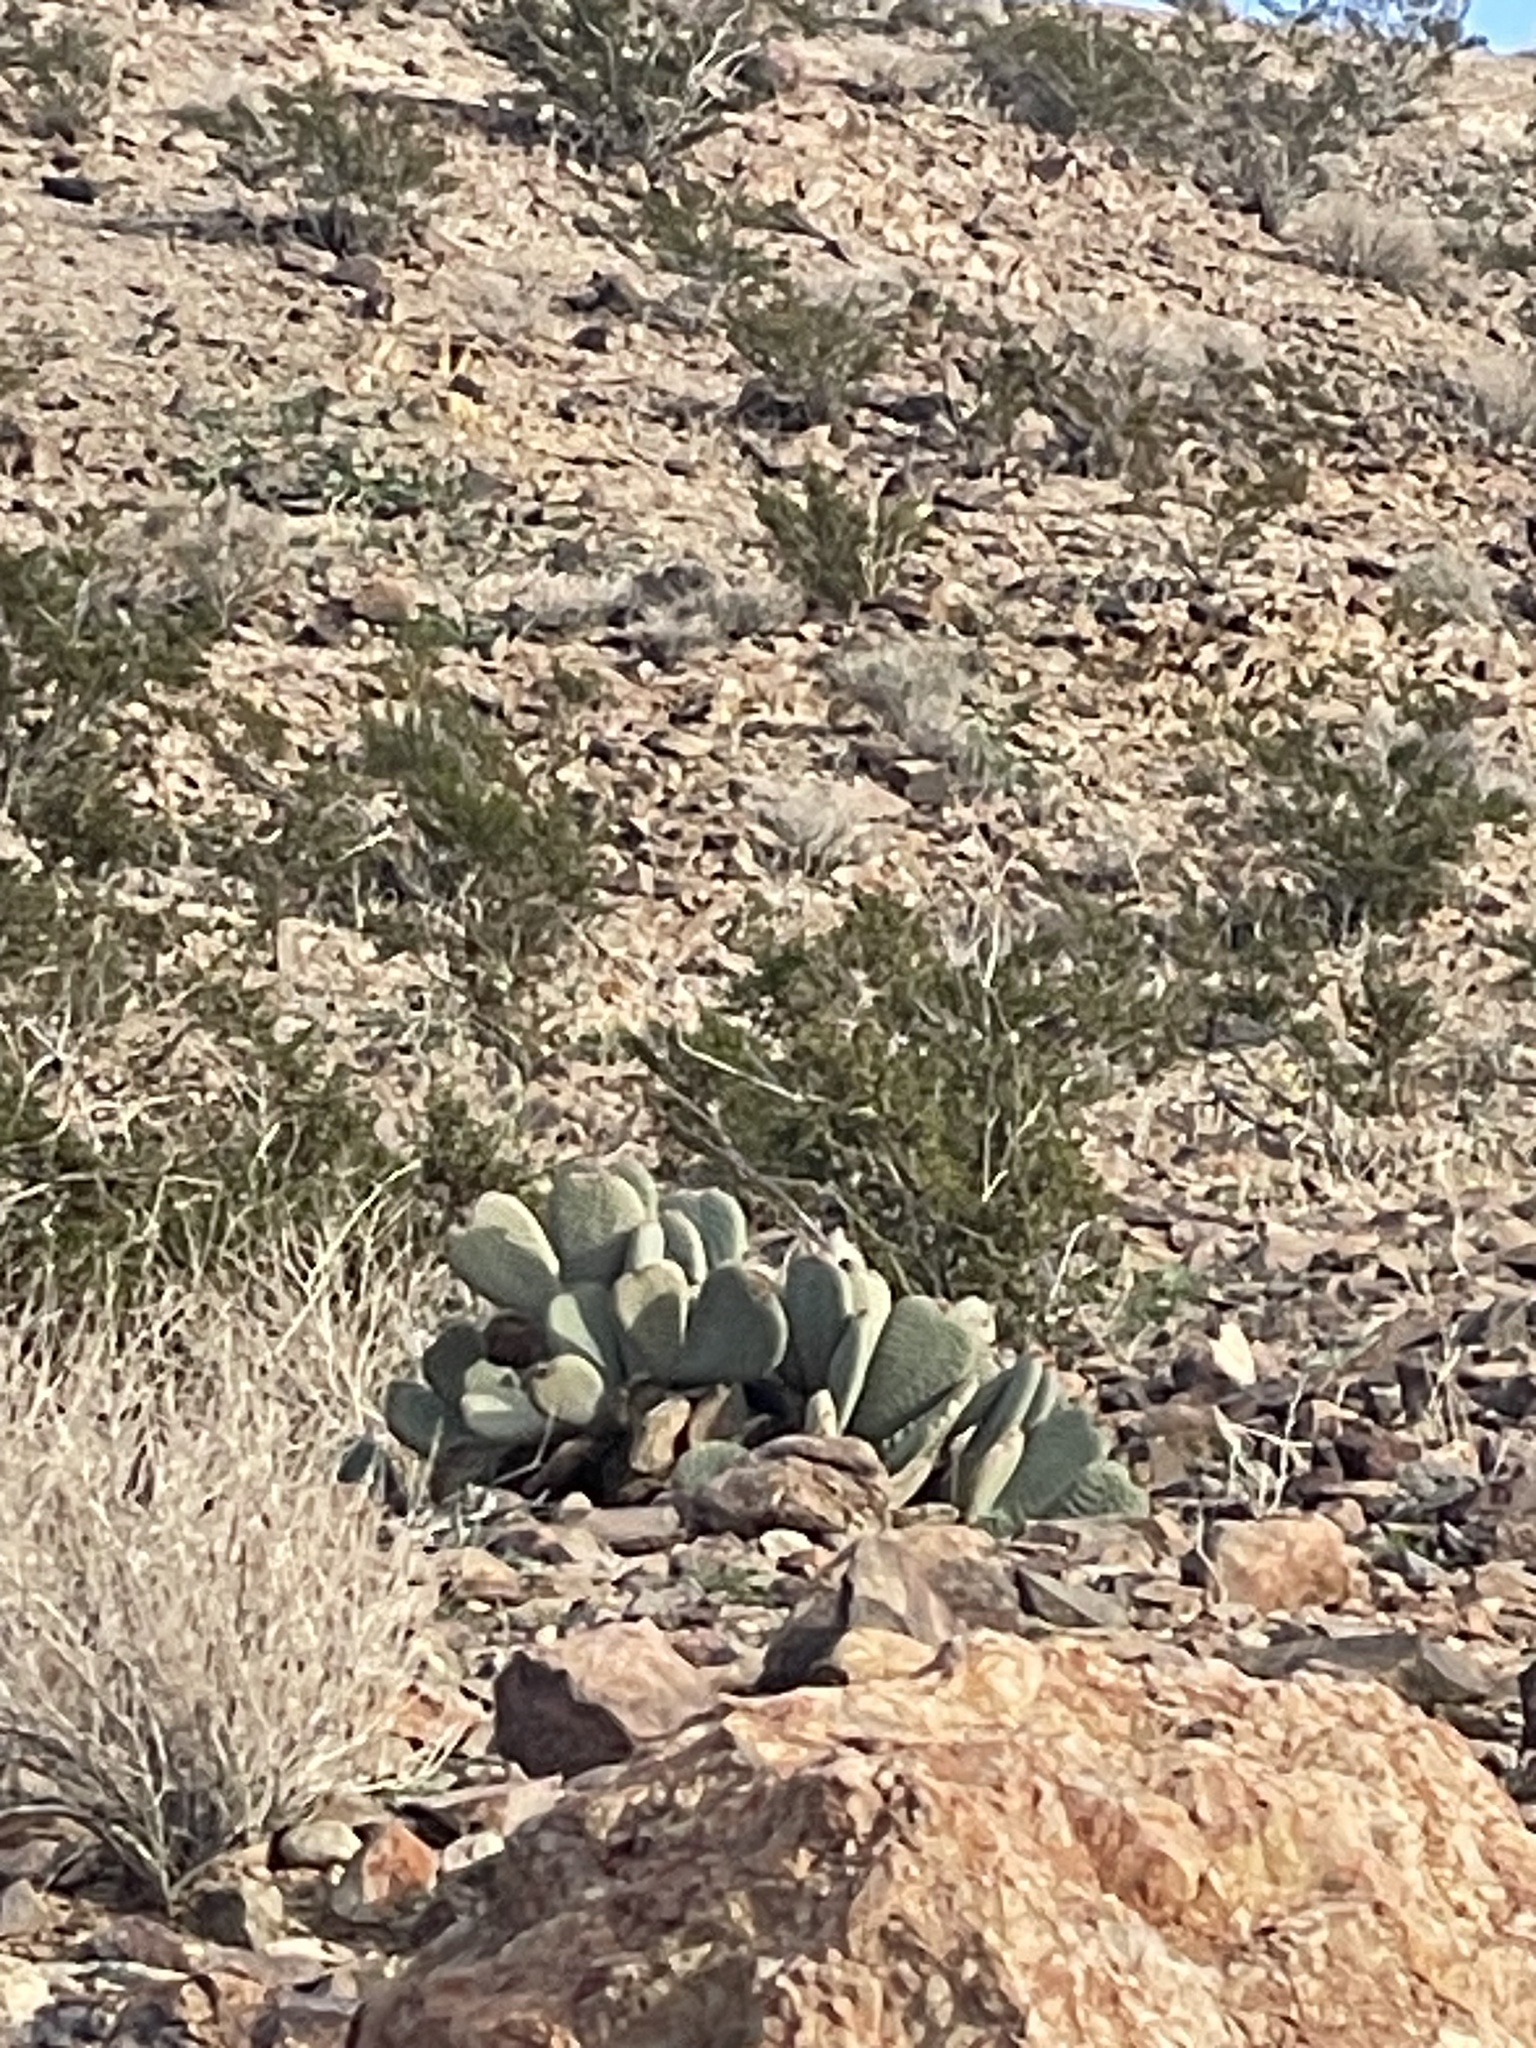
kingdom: Plantae
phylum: Tracheophyta
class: Magnoliopsida
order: Caryophyllales
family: Cactaceae
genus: Opuntia
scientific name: Opuntia basilaris
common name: Beavertail prickly-pear
